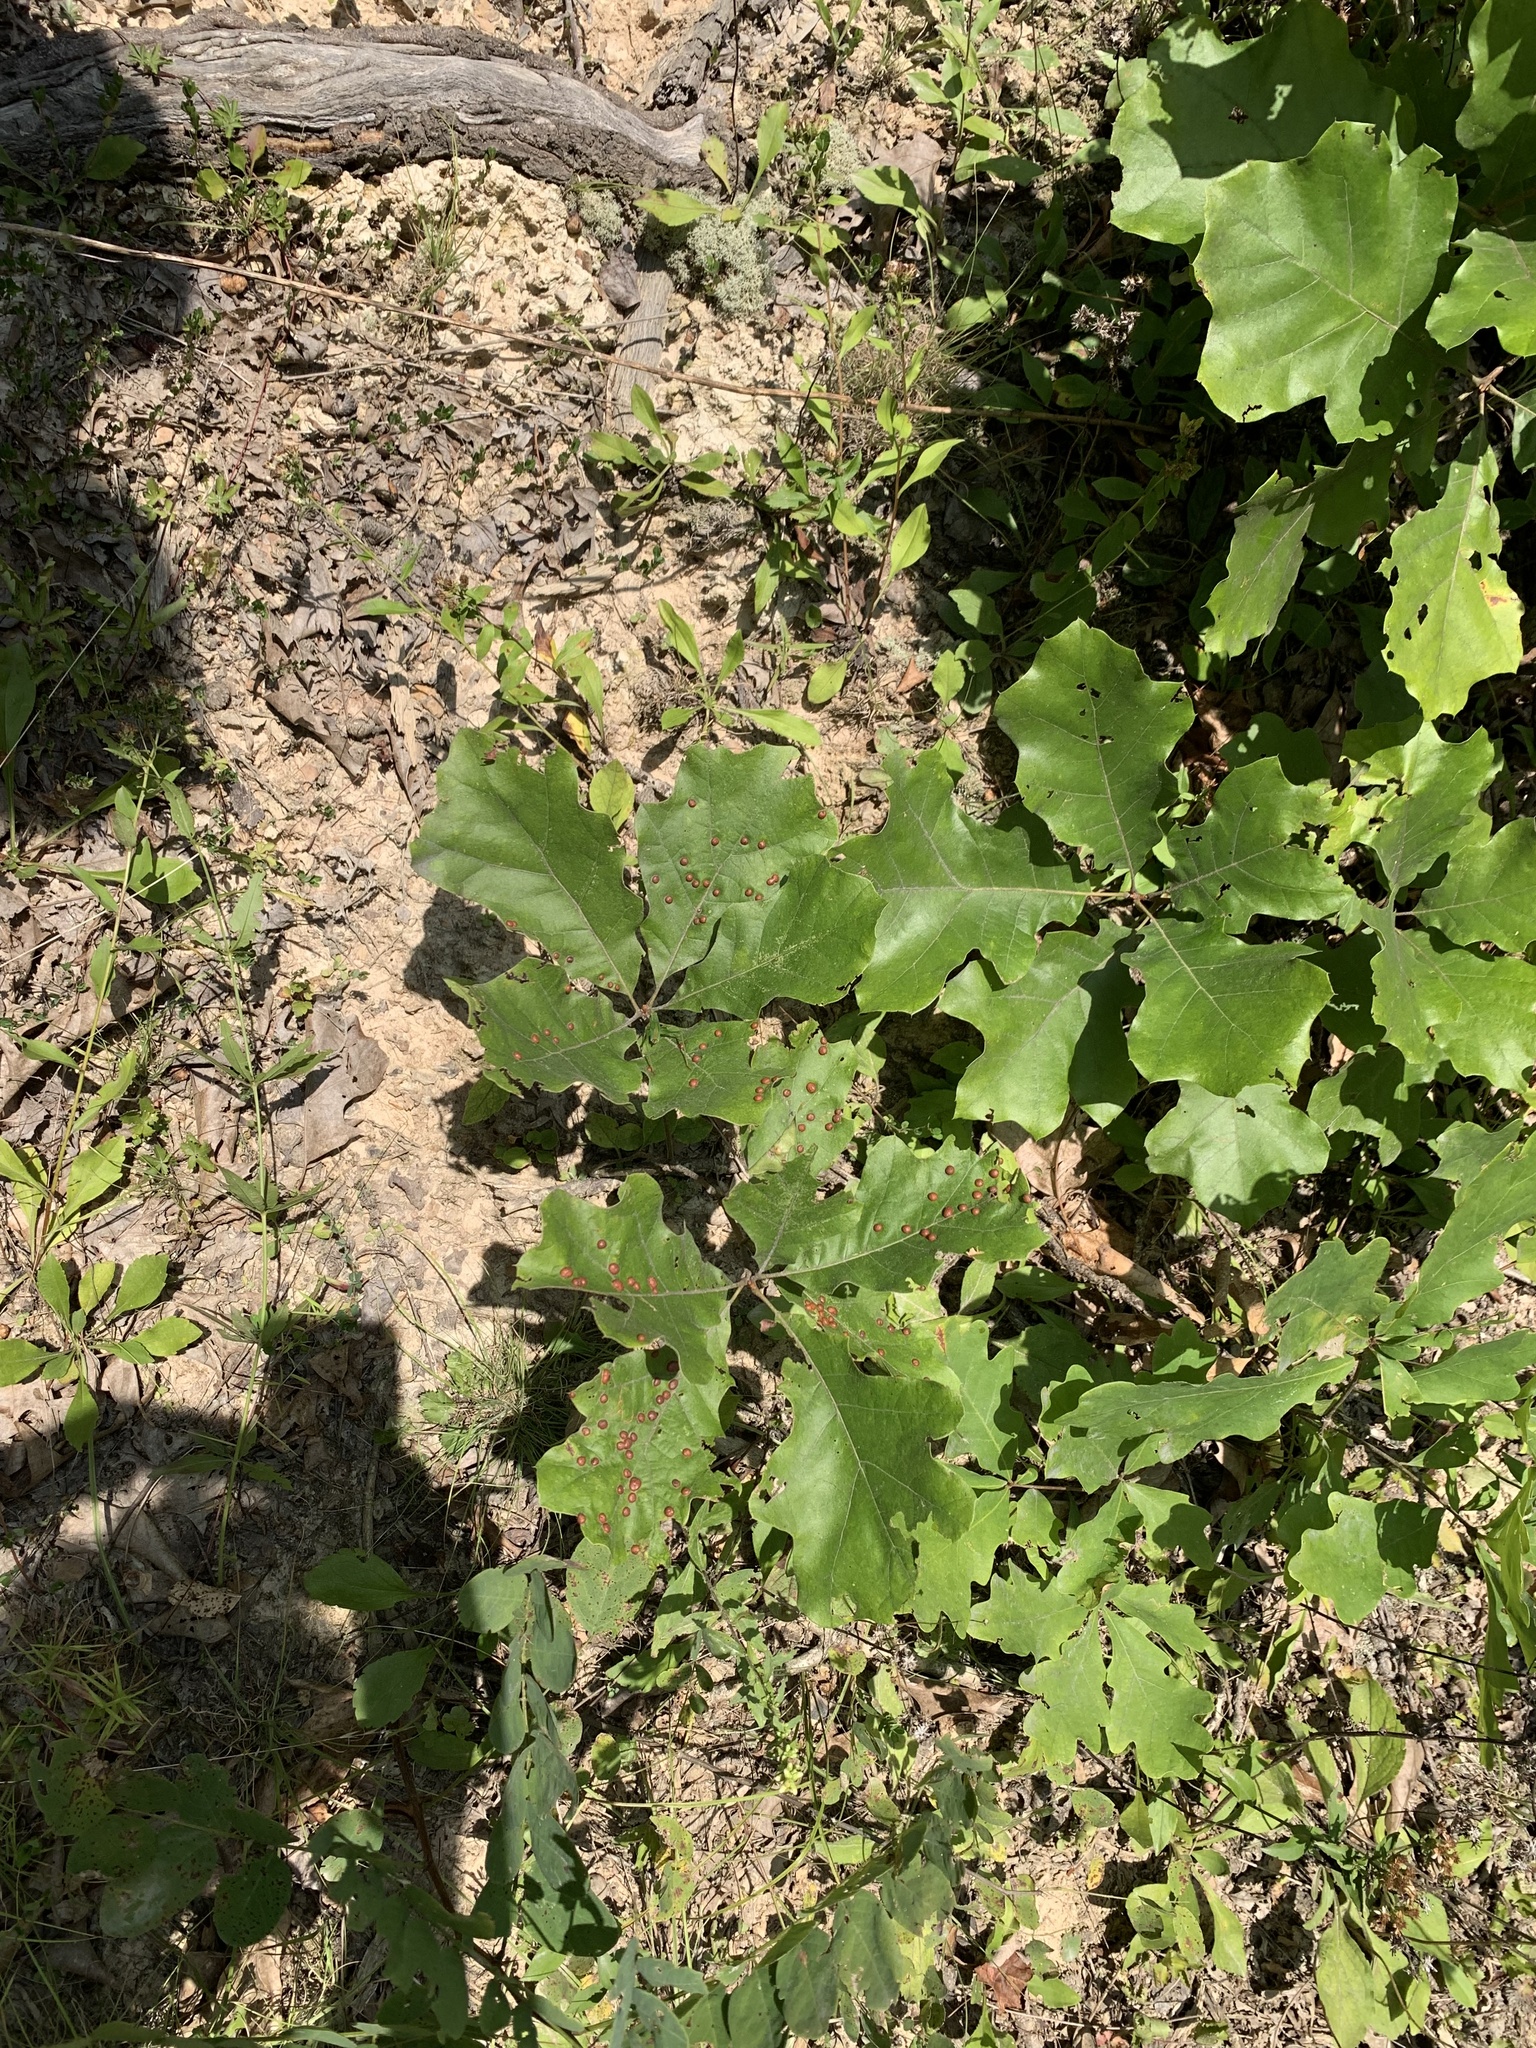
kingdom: Animalia
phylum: Arthropoda
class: Insecta
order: Diptera
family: Cecidomyiidae
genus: Polystepha
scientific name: Polystepha pilulae
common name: Oak leaf gall midge
